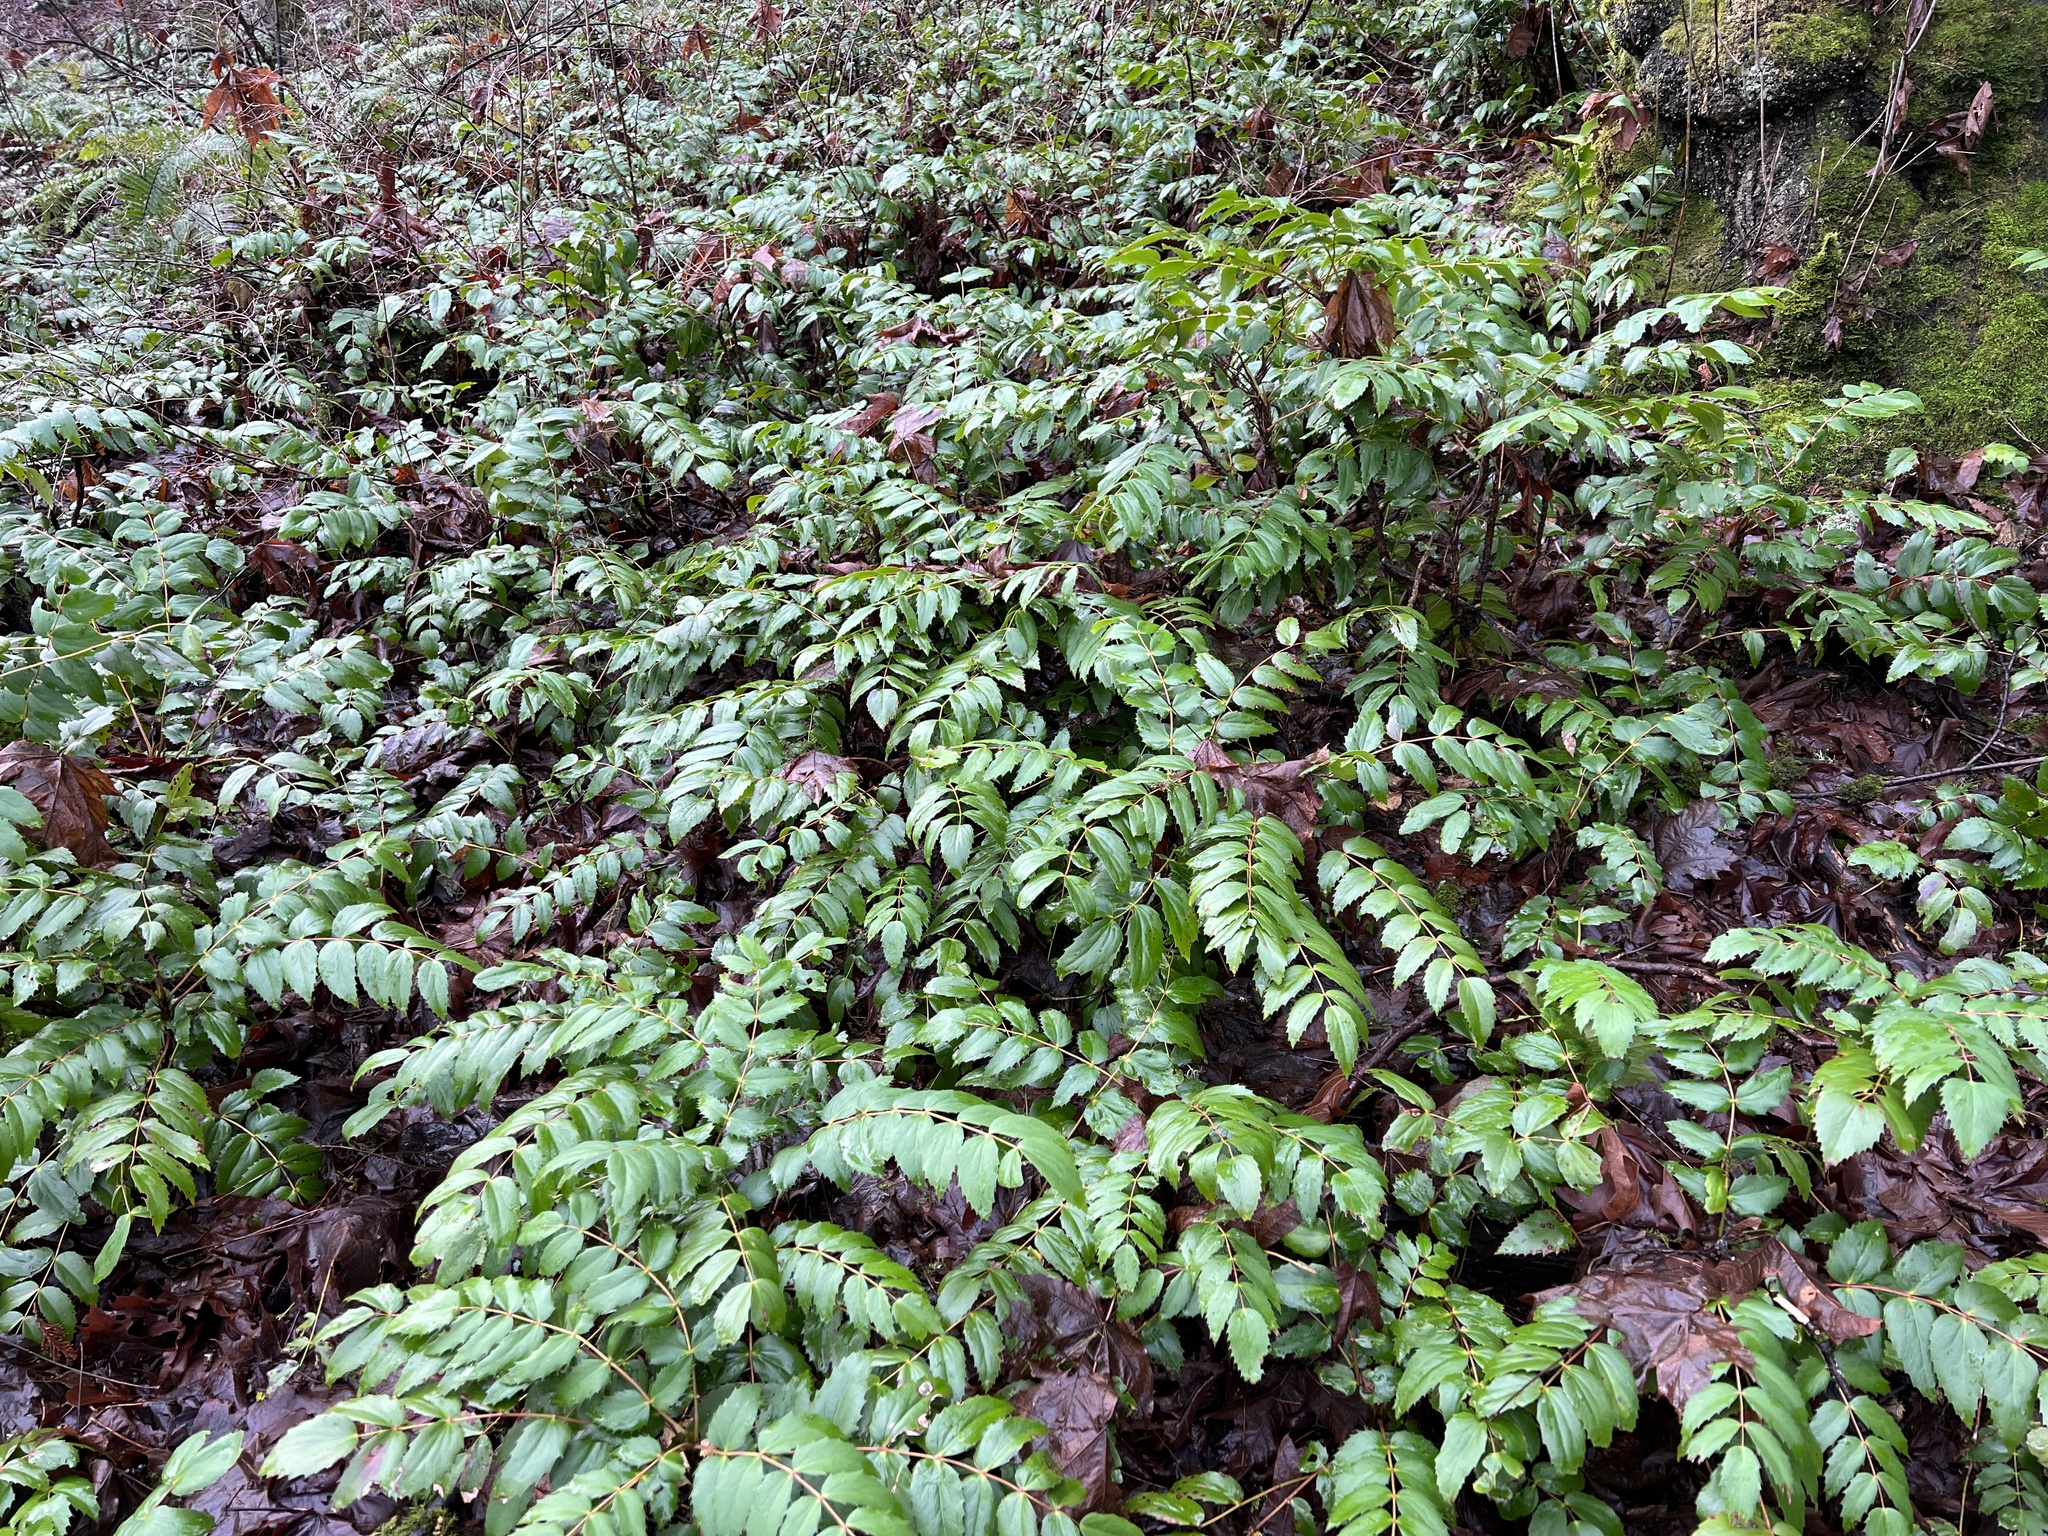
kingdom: Plantae
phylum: Tracheophyta
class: Magnoliopsida
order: Ranunculales
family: Berberidaceae
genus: Mahonia
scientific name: Mahonia nervosa
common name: Cascade oregon-grape
